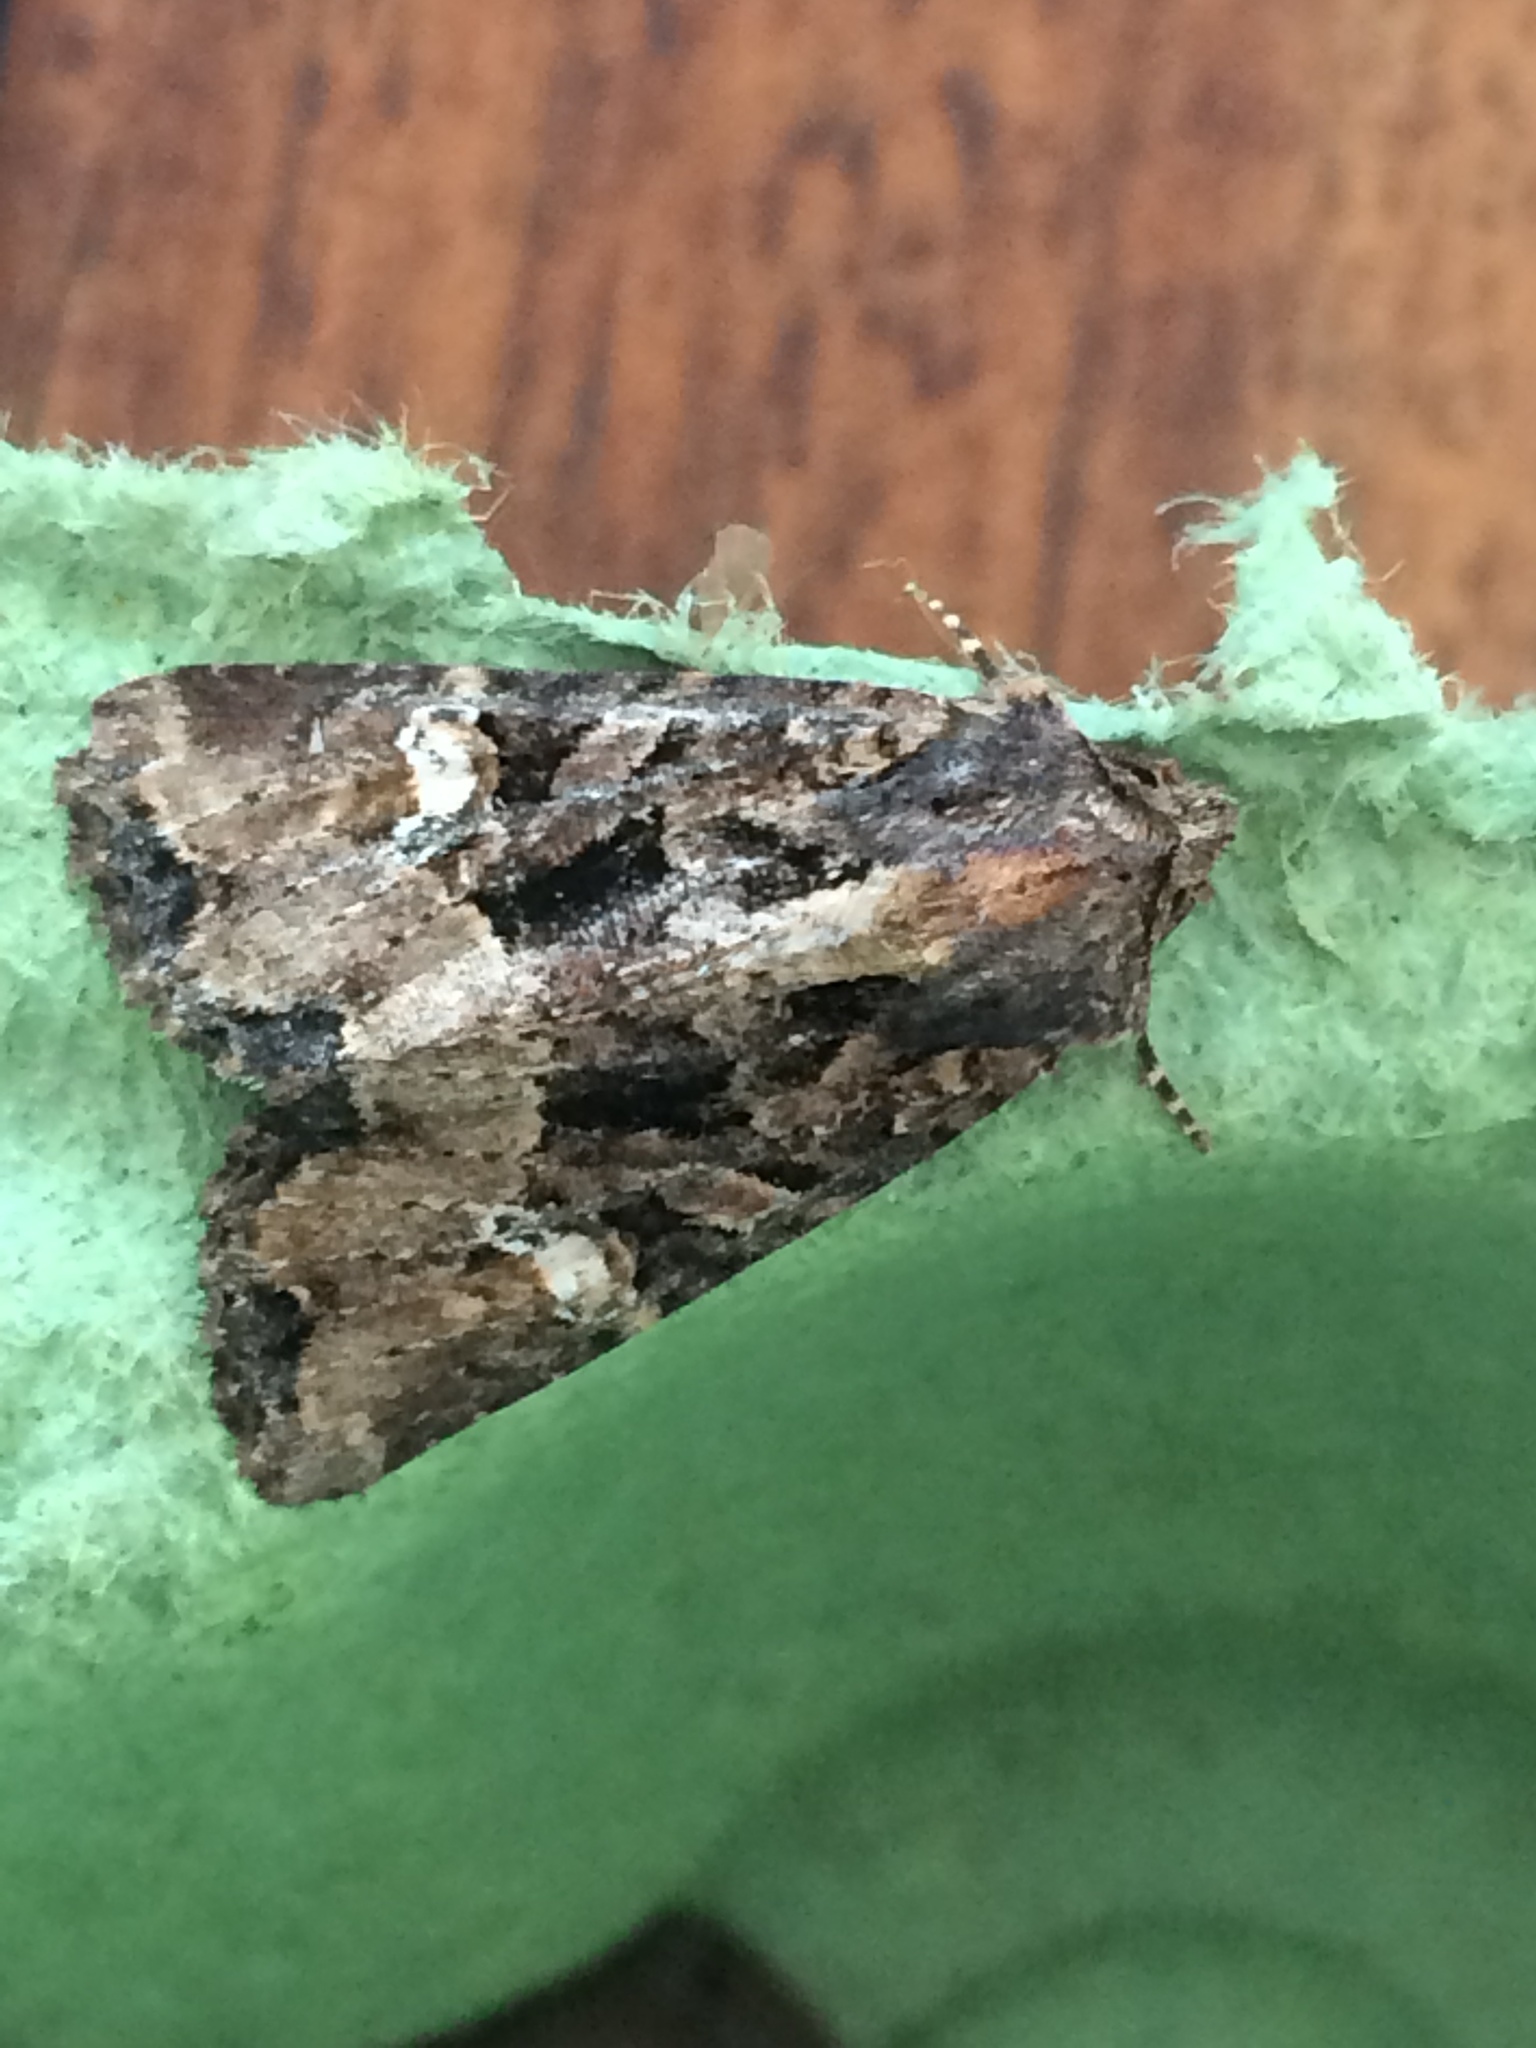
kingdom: Animalia
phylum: Arthropoda
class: Insecta
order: Lepidoptera
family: Noctuidae
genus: Mesapamea
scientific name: Mesapamea
